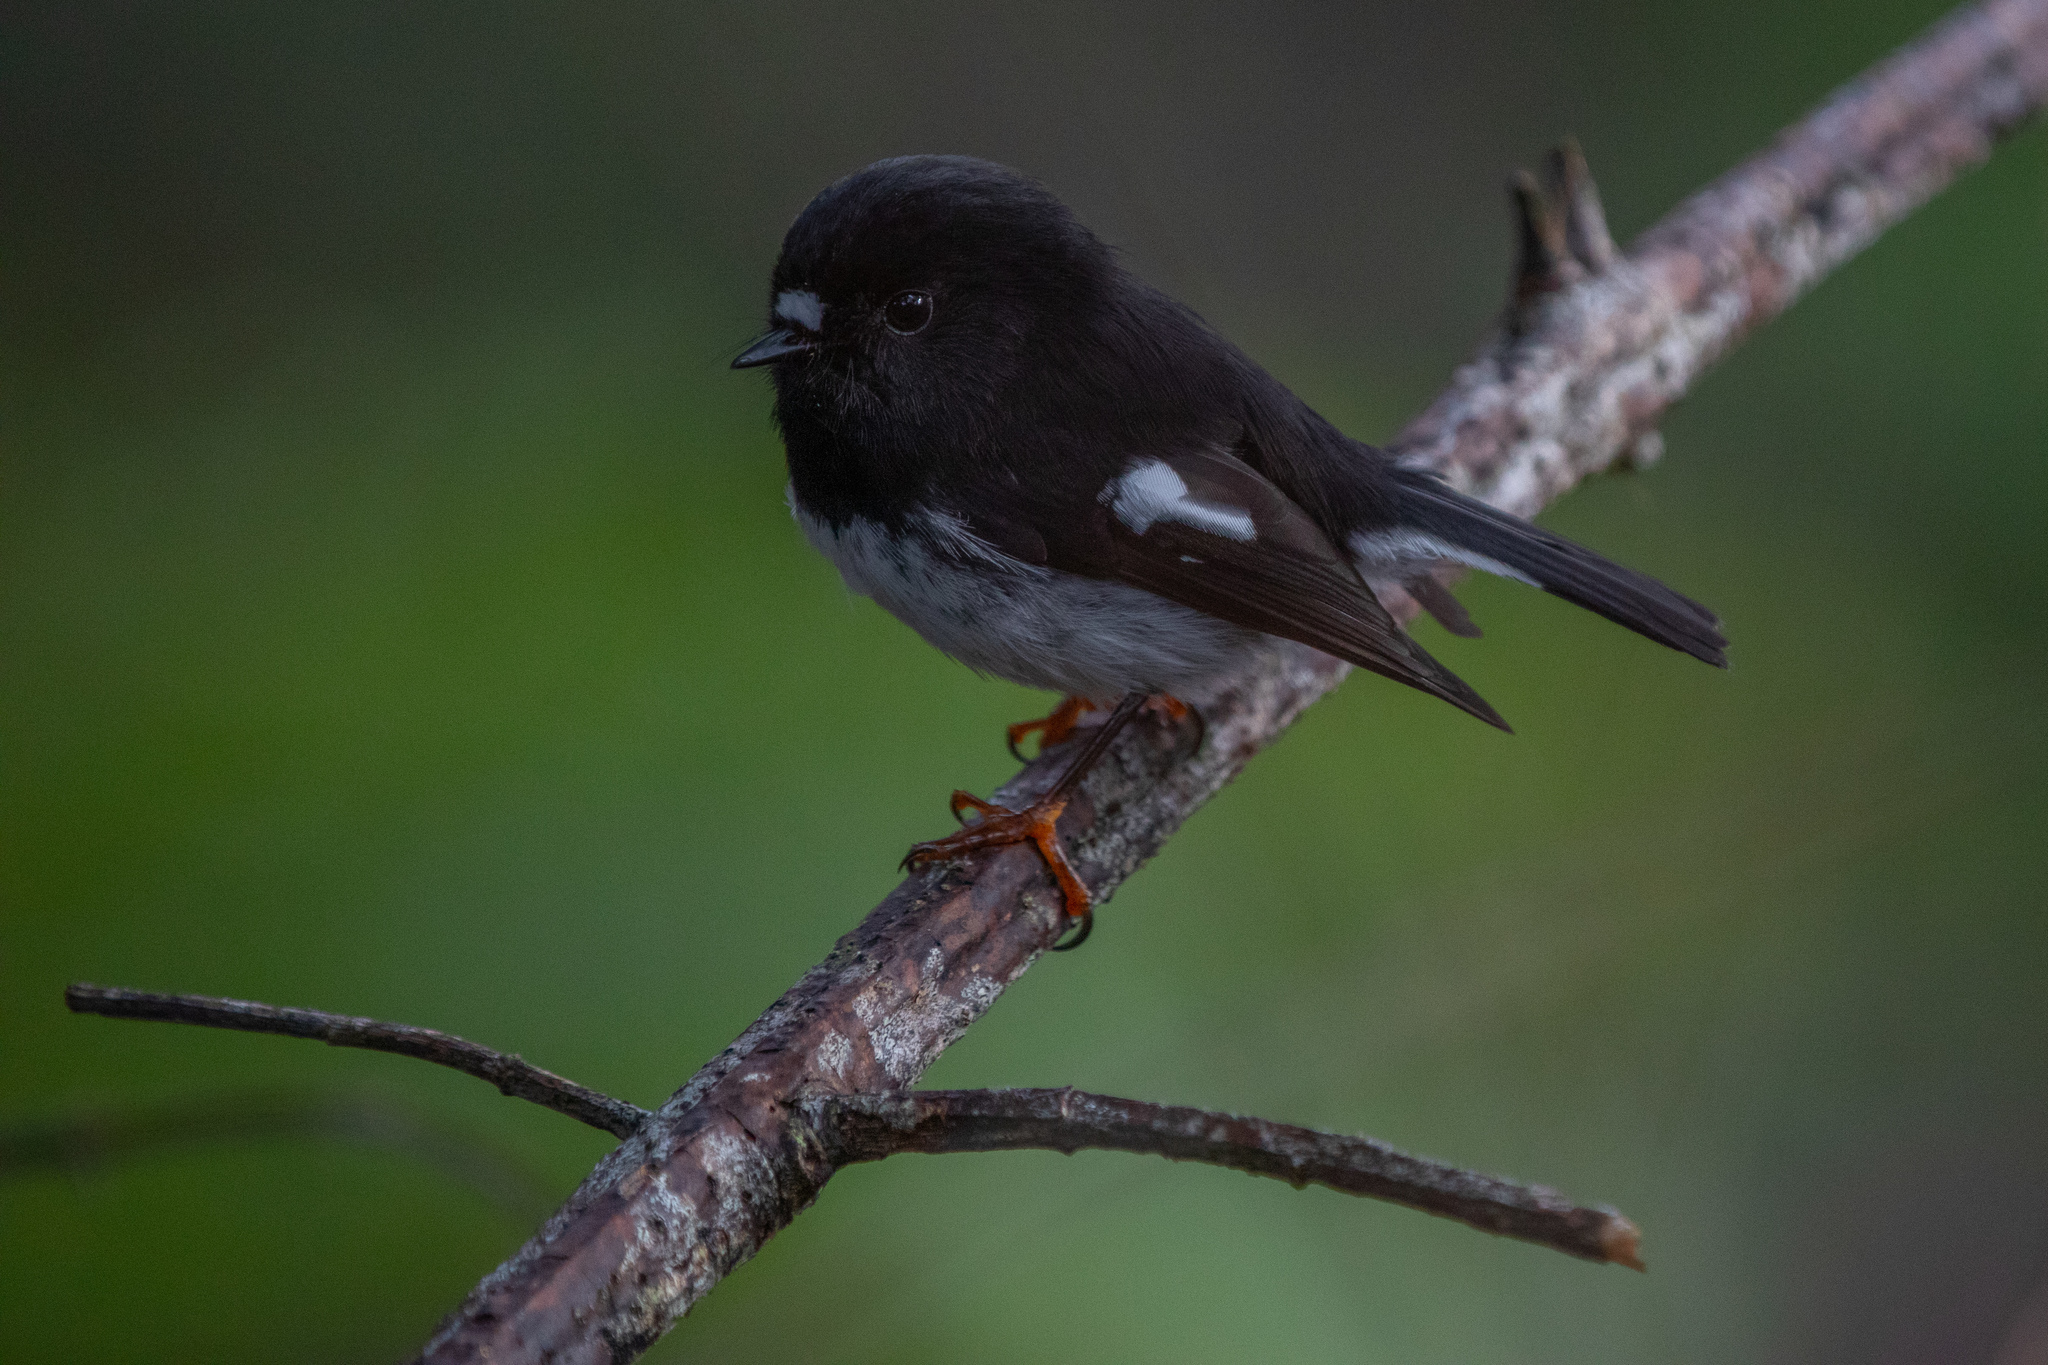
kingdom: Animalia
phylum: Chordata
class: Aves
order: Passeriformes
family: Petroicidae
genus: Petroica
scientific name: Petroica macrocephala
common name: Tomtit
